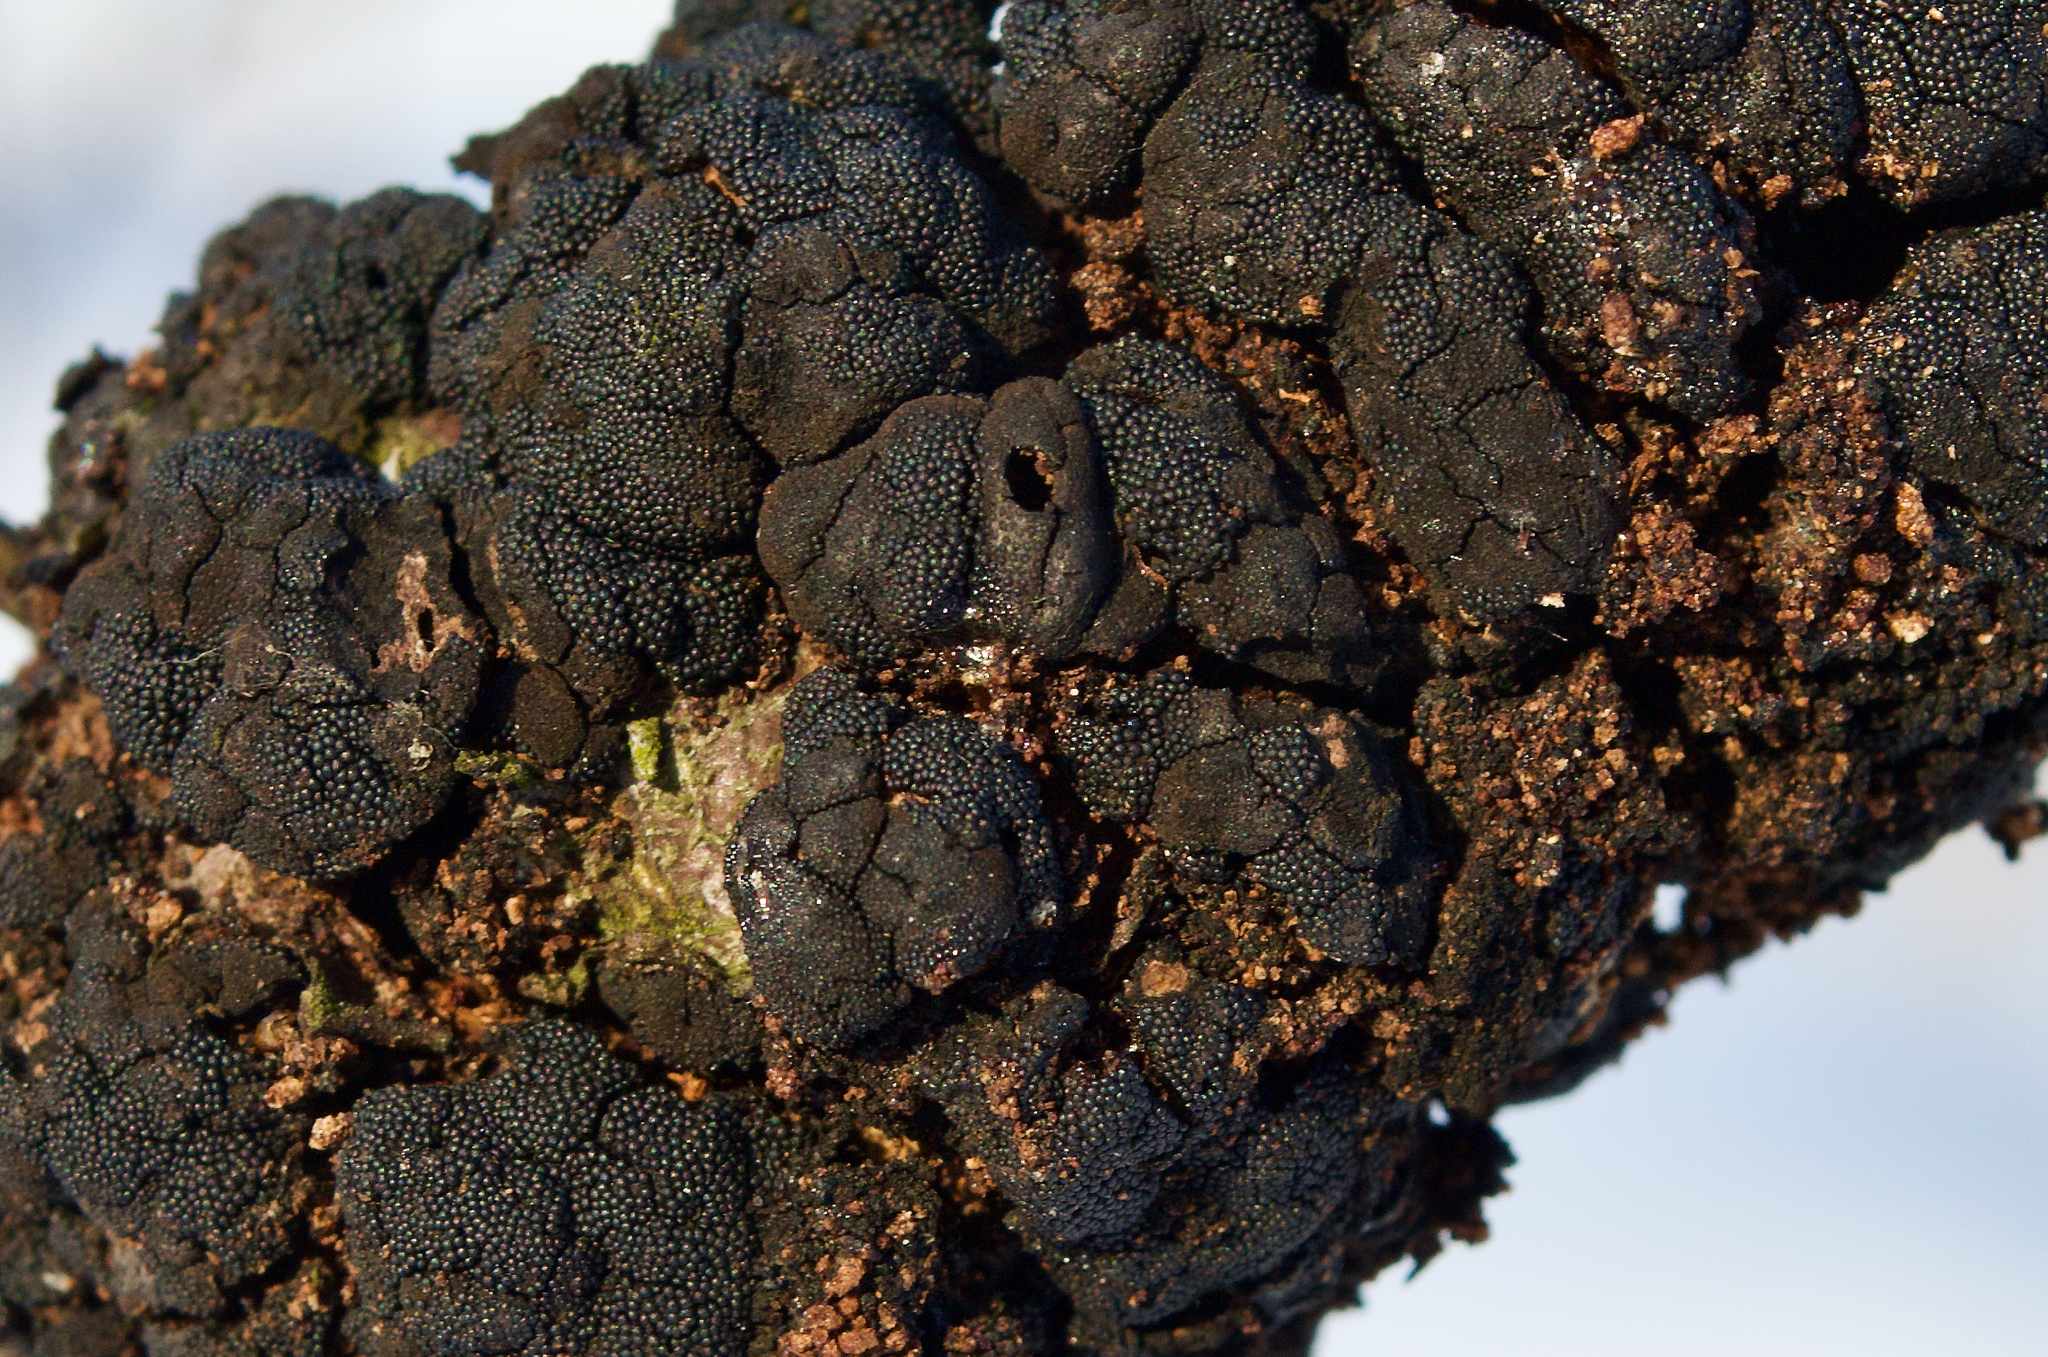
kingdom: Fungi
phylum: Ascomycota
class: Dothideomycetes
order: Venturiales
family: Venturiaceae
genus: Apiosporina
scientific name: Apiosporina morbosa
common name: Black knot
